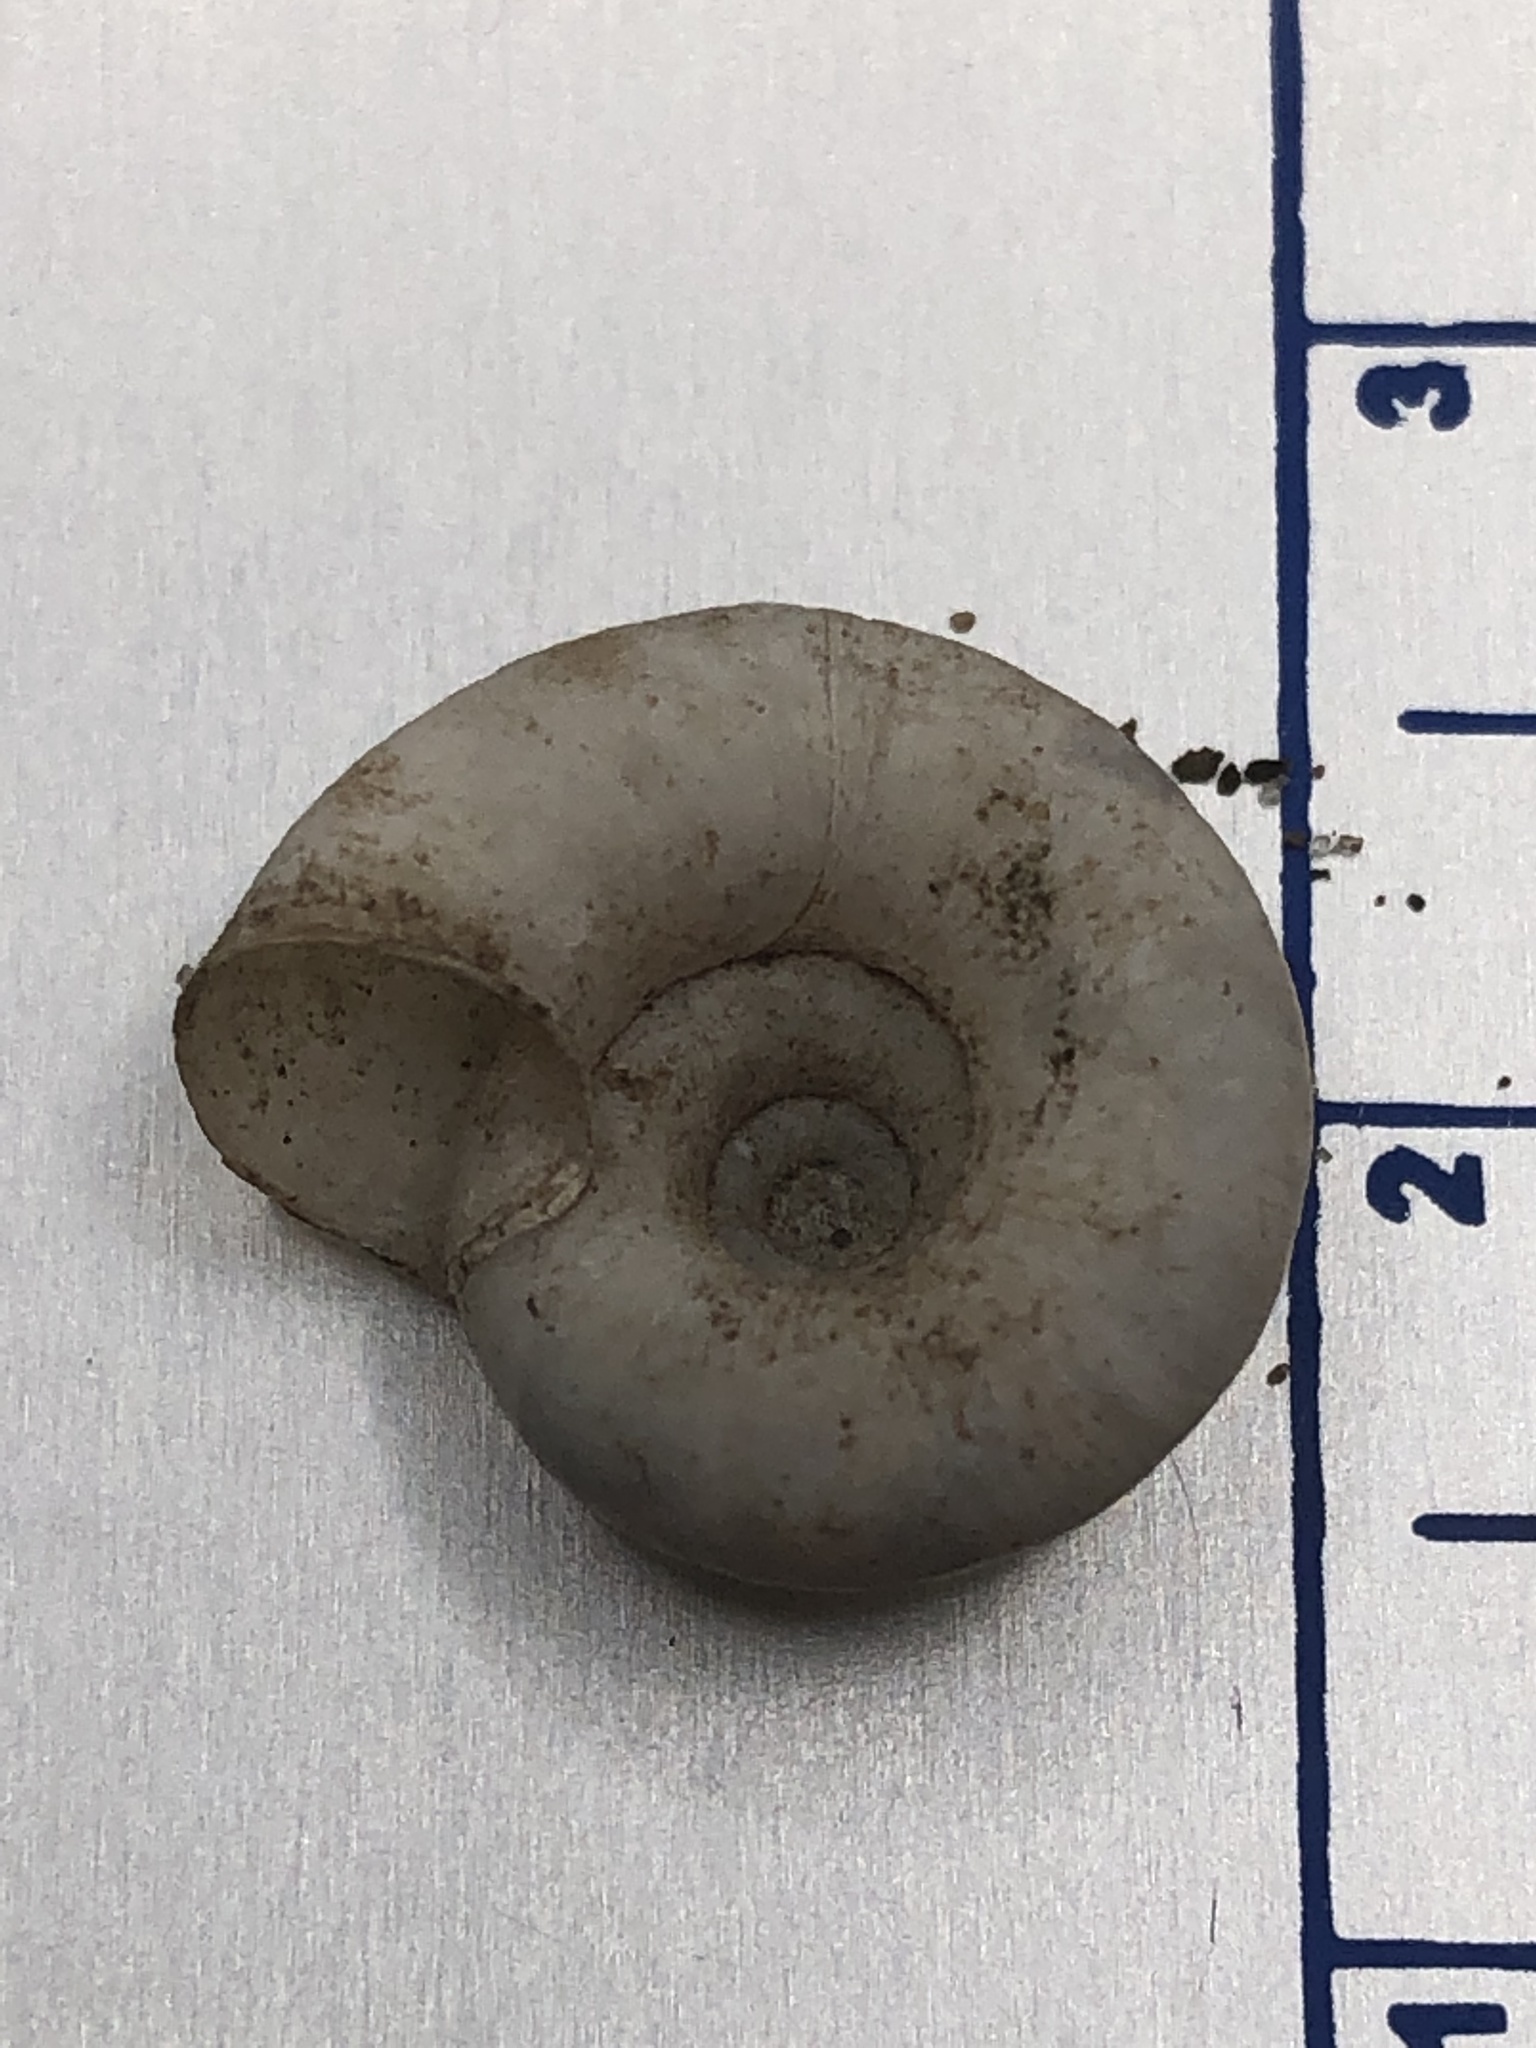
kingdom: Animalia
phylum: Mollusca
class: Gastropoda
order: Stylommatophora
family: Haplotrematidae
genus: Haplotrema
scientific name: Haplotrema concavum
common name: Gray-foot lancetooth
